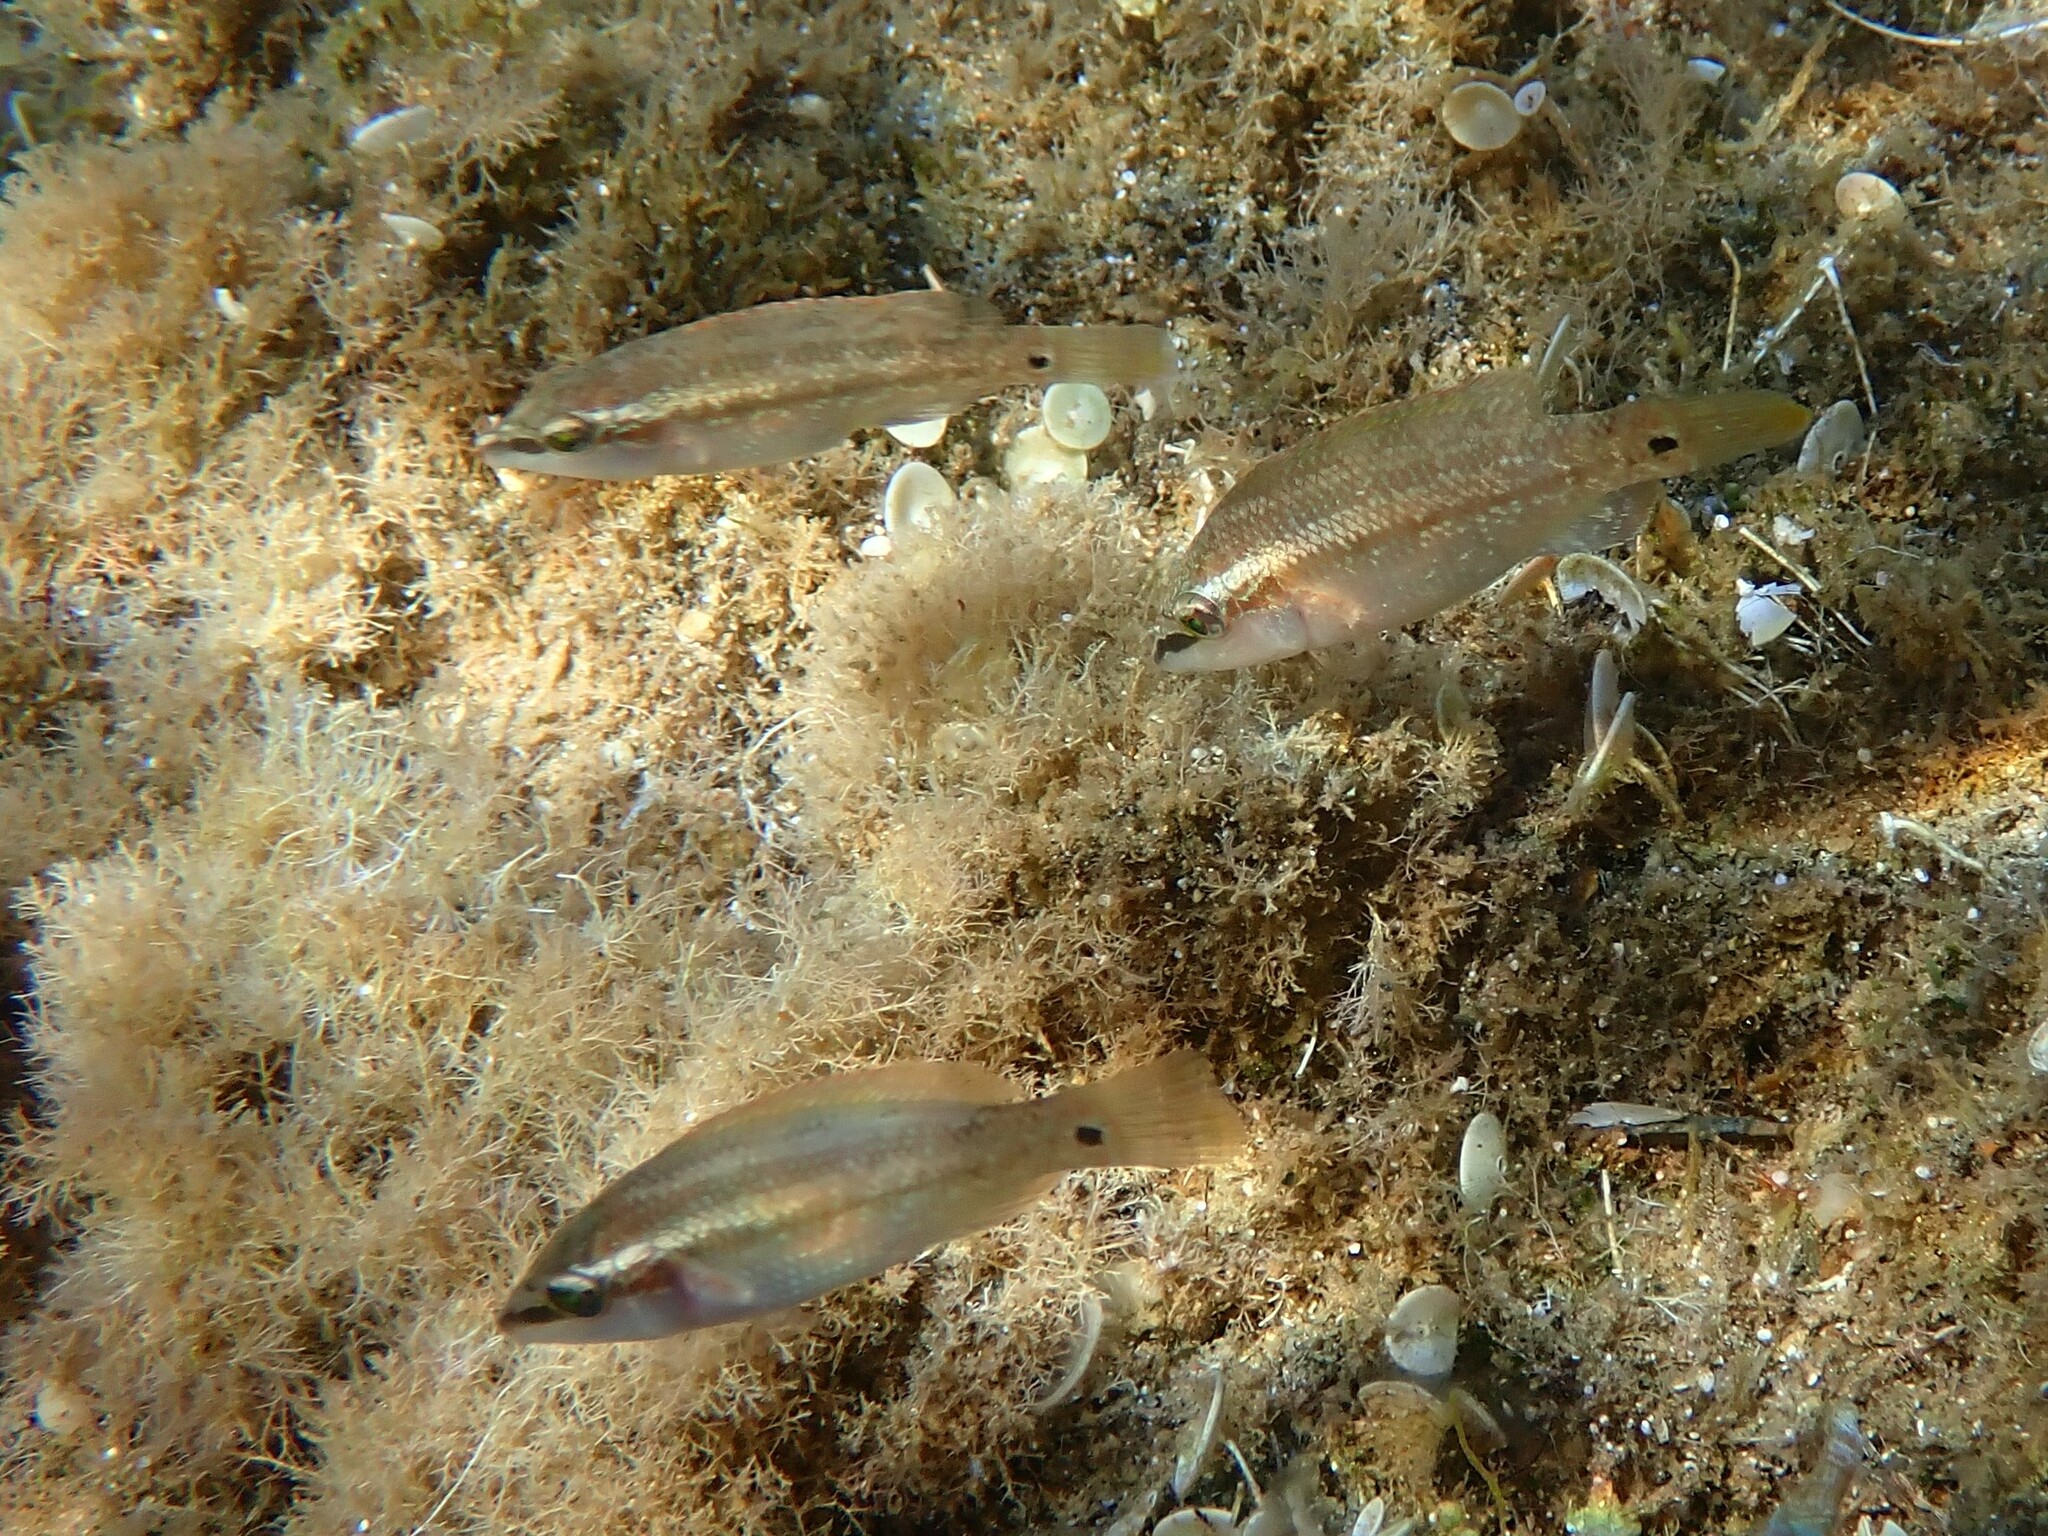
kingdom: Animalia
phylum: Chordata
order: Perciformes
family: Labridae
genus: Symphodus
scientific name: Symphodus tinca
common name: Peacock wrasse
